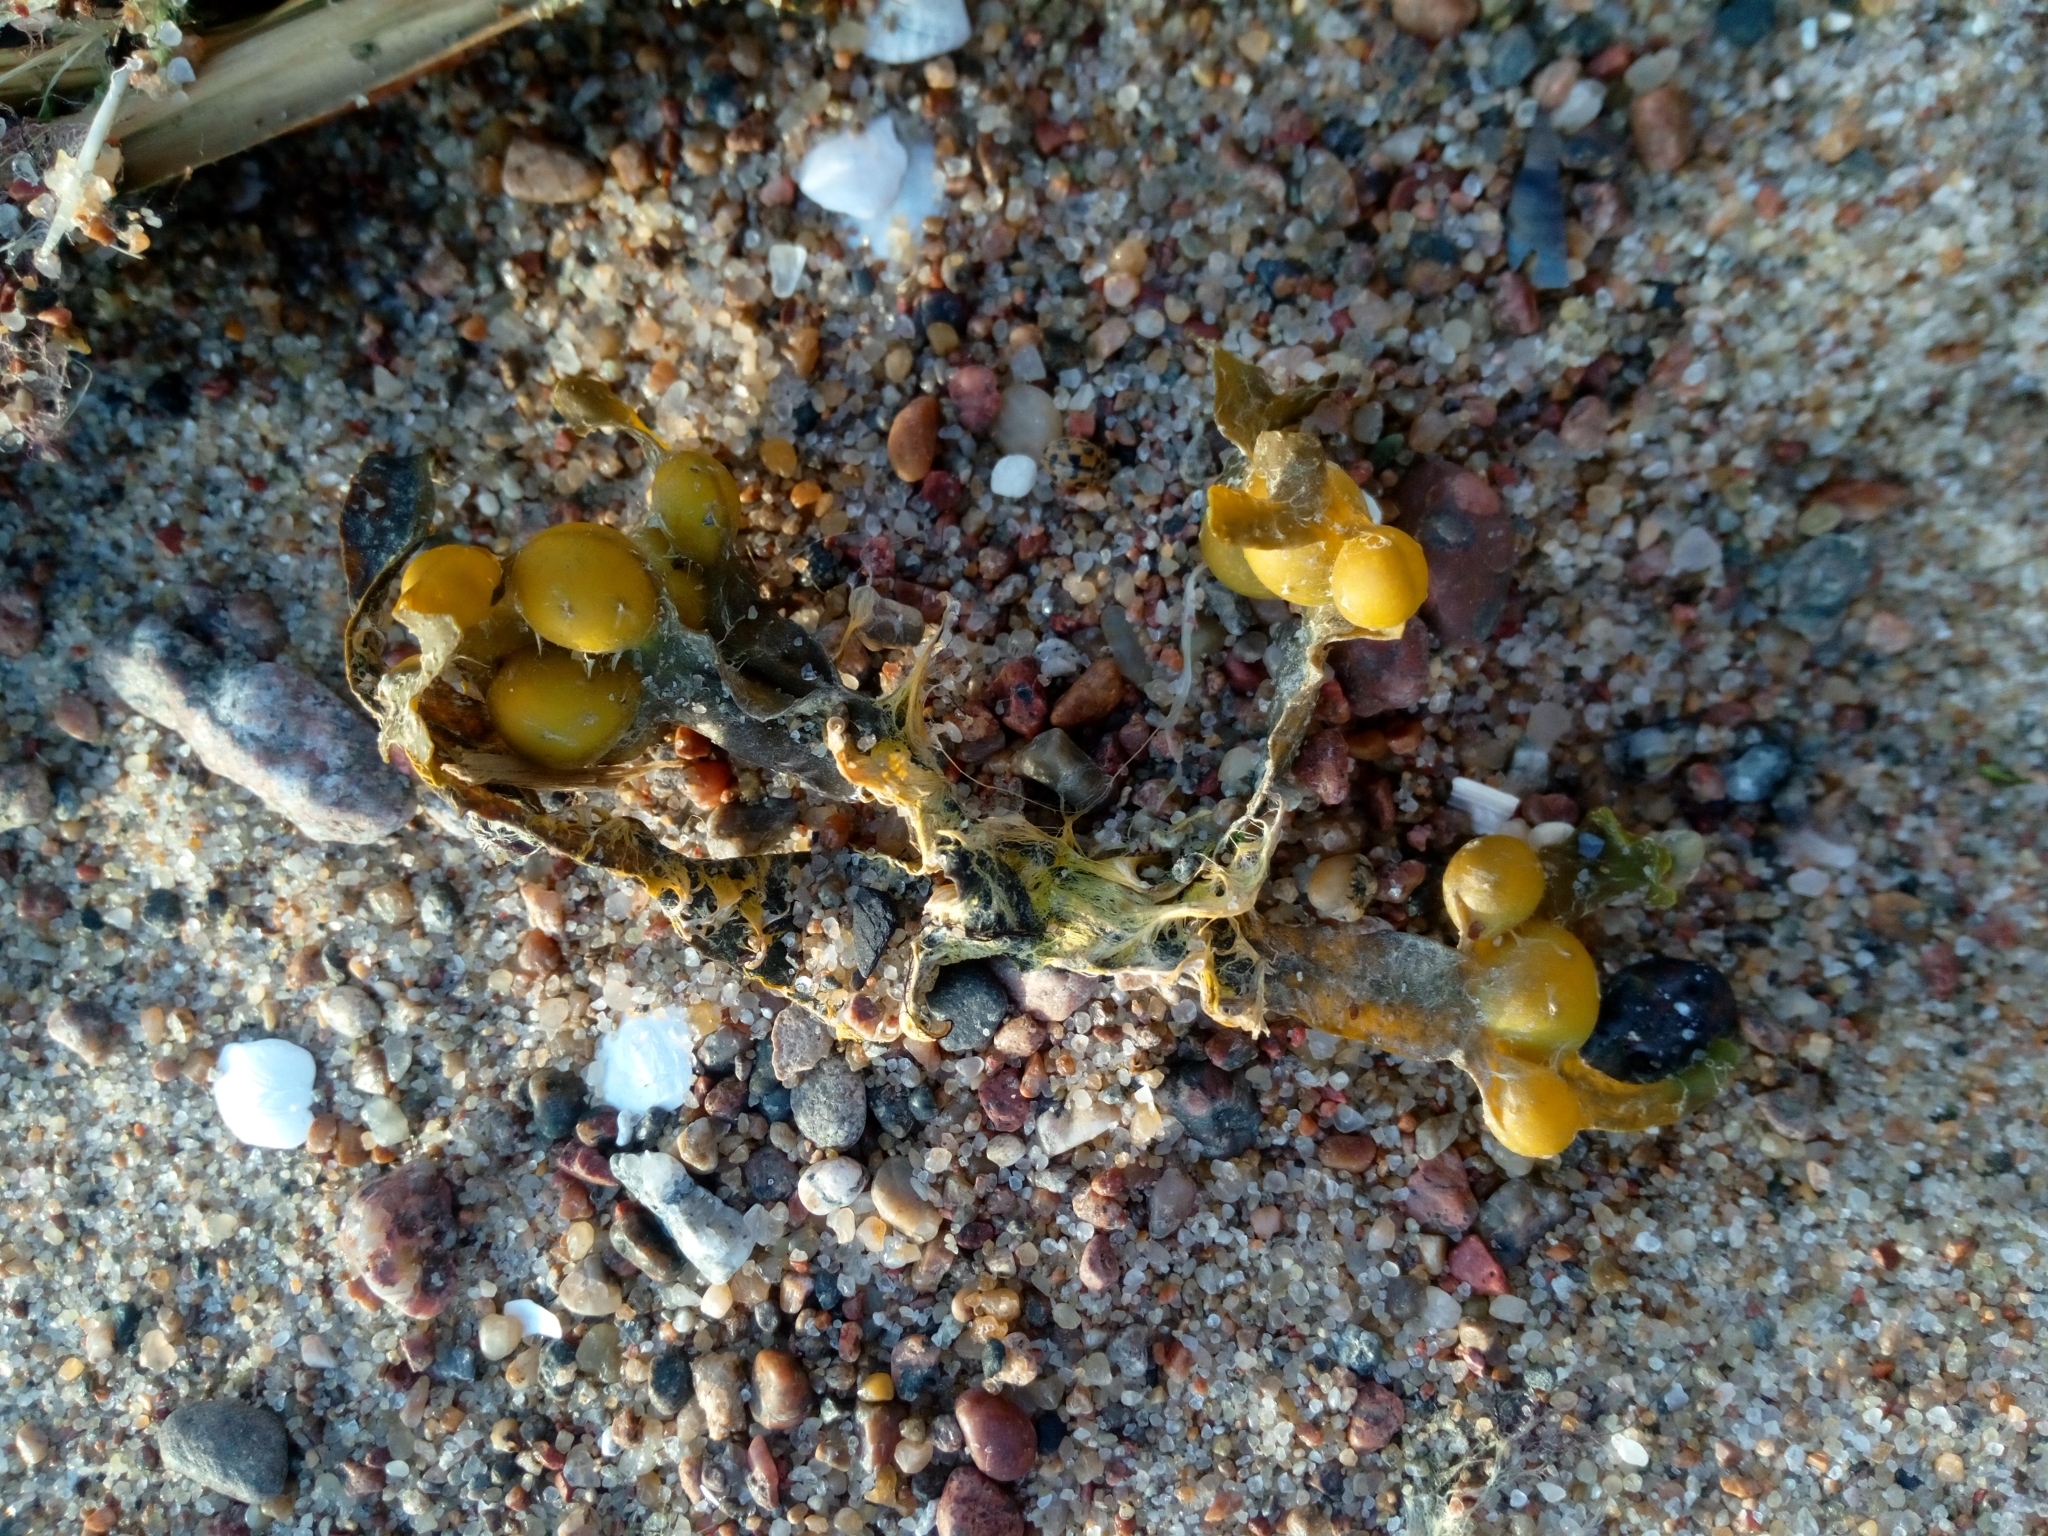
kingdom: Chromista
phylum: Ochrophyta
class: Phaeophyceae
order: Fucales
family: Fucaceae
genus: Fucus
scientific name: Fucus vesiculosus
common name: Bladder wrack
